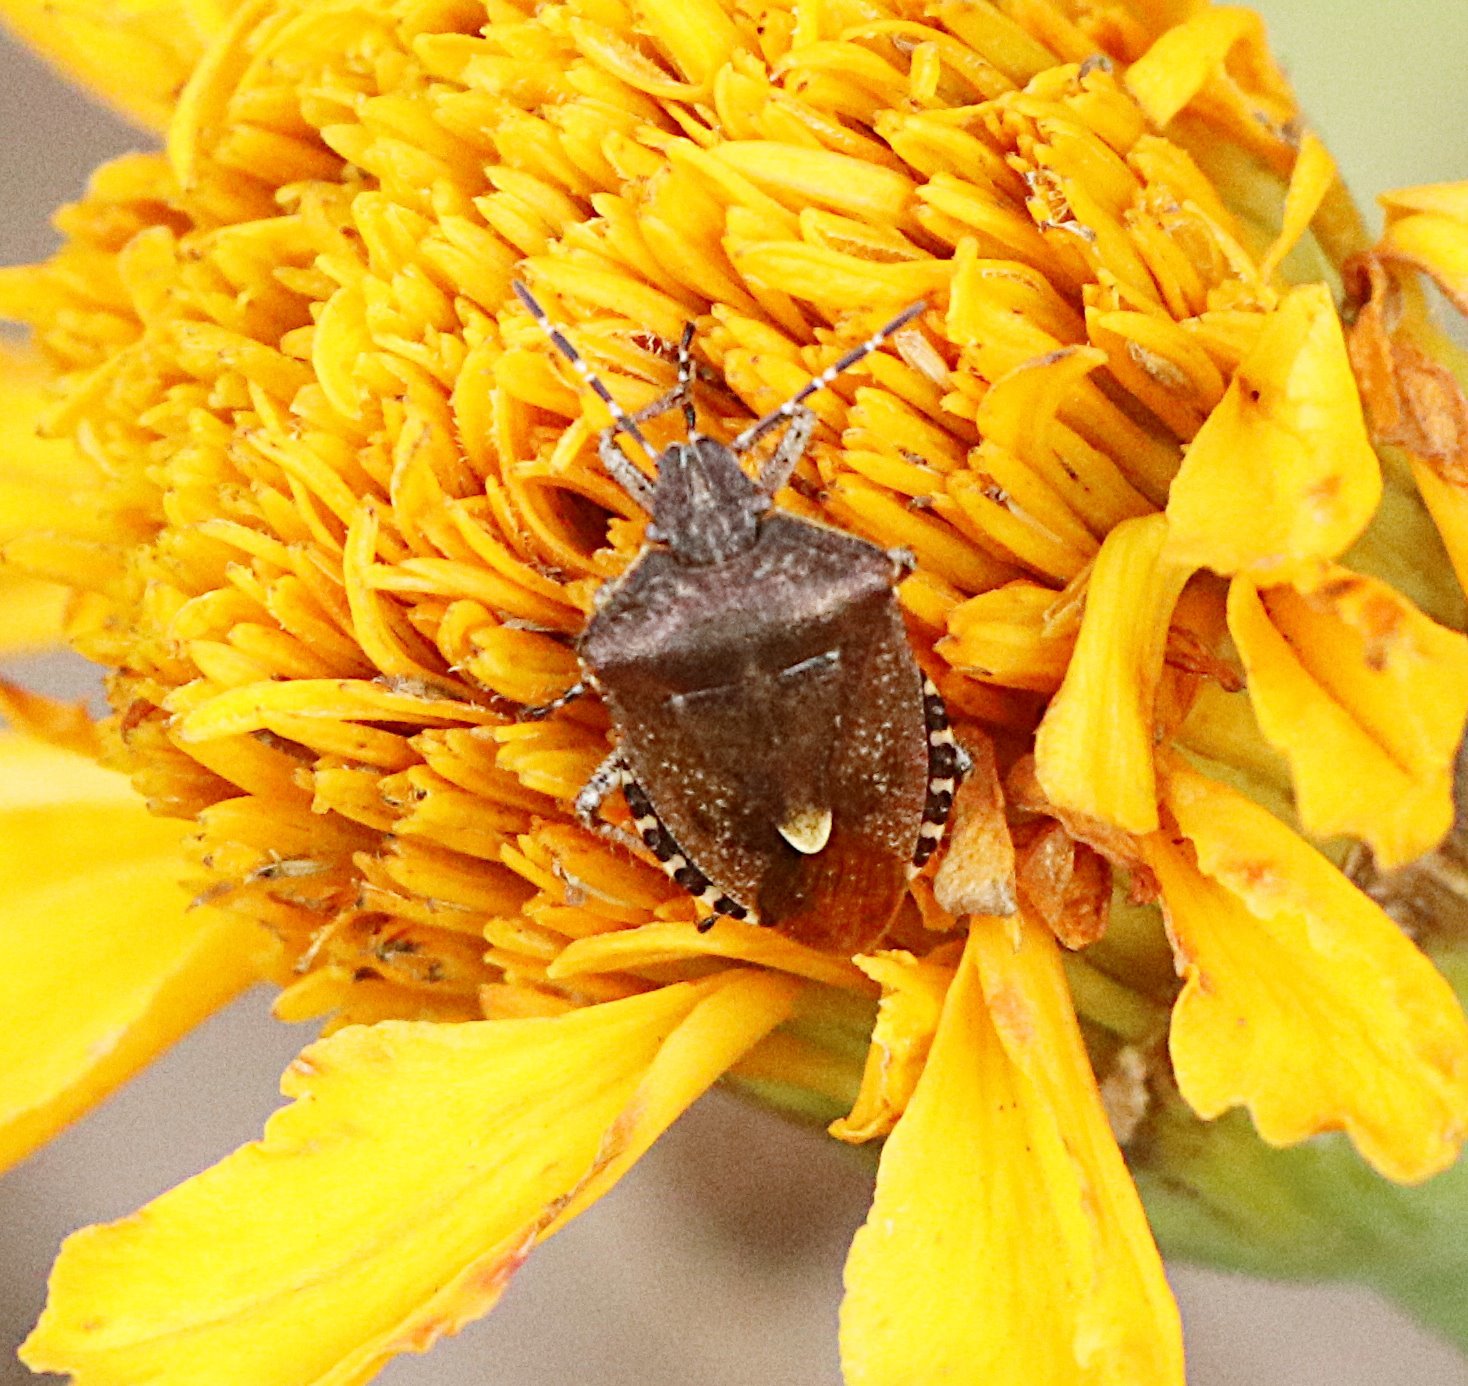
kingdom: Animalia
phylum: Arthropoda
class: Insecta
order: Hemiptera
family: Pentatomidae
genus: Dolycoris
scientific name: Dolycoris baccarum
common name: Sloe bug
